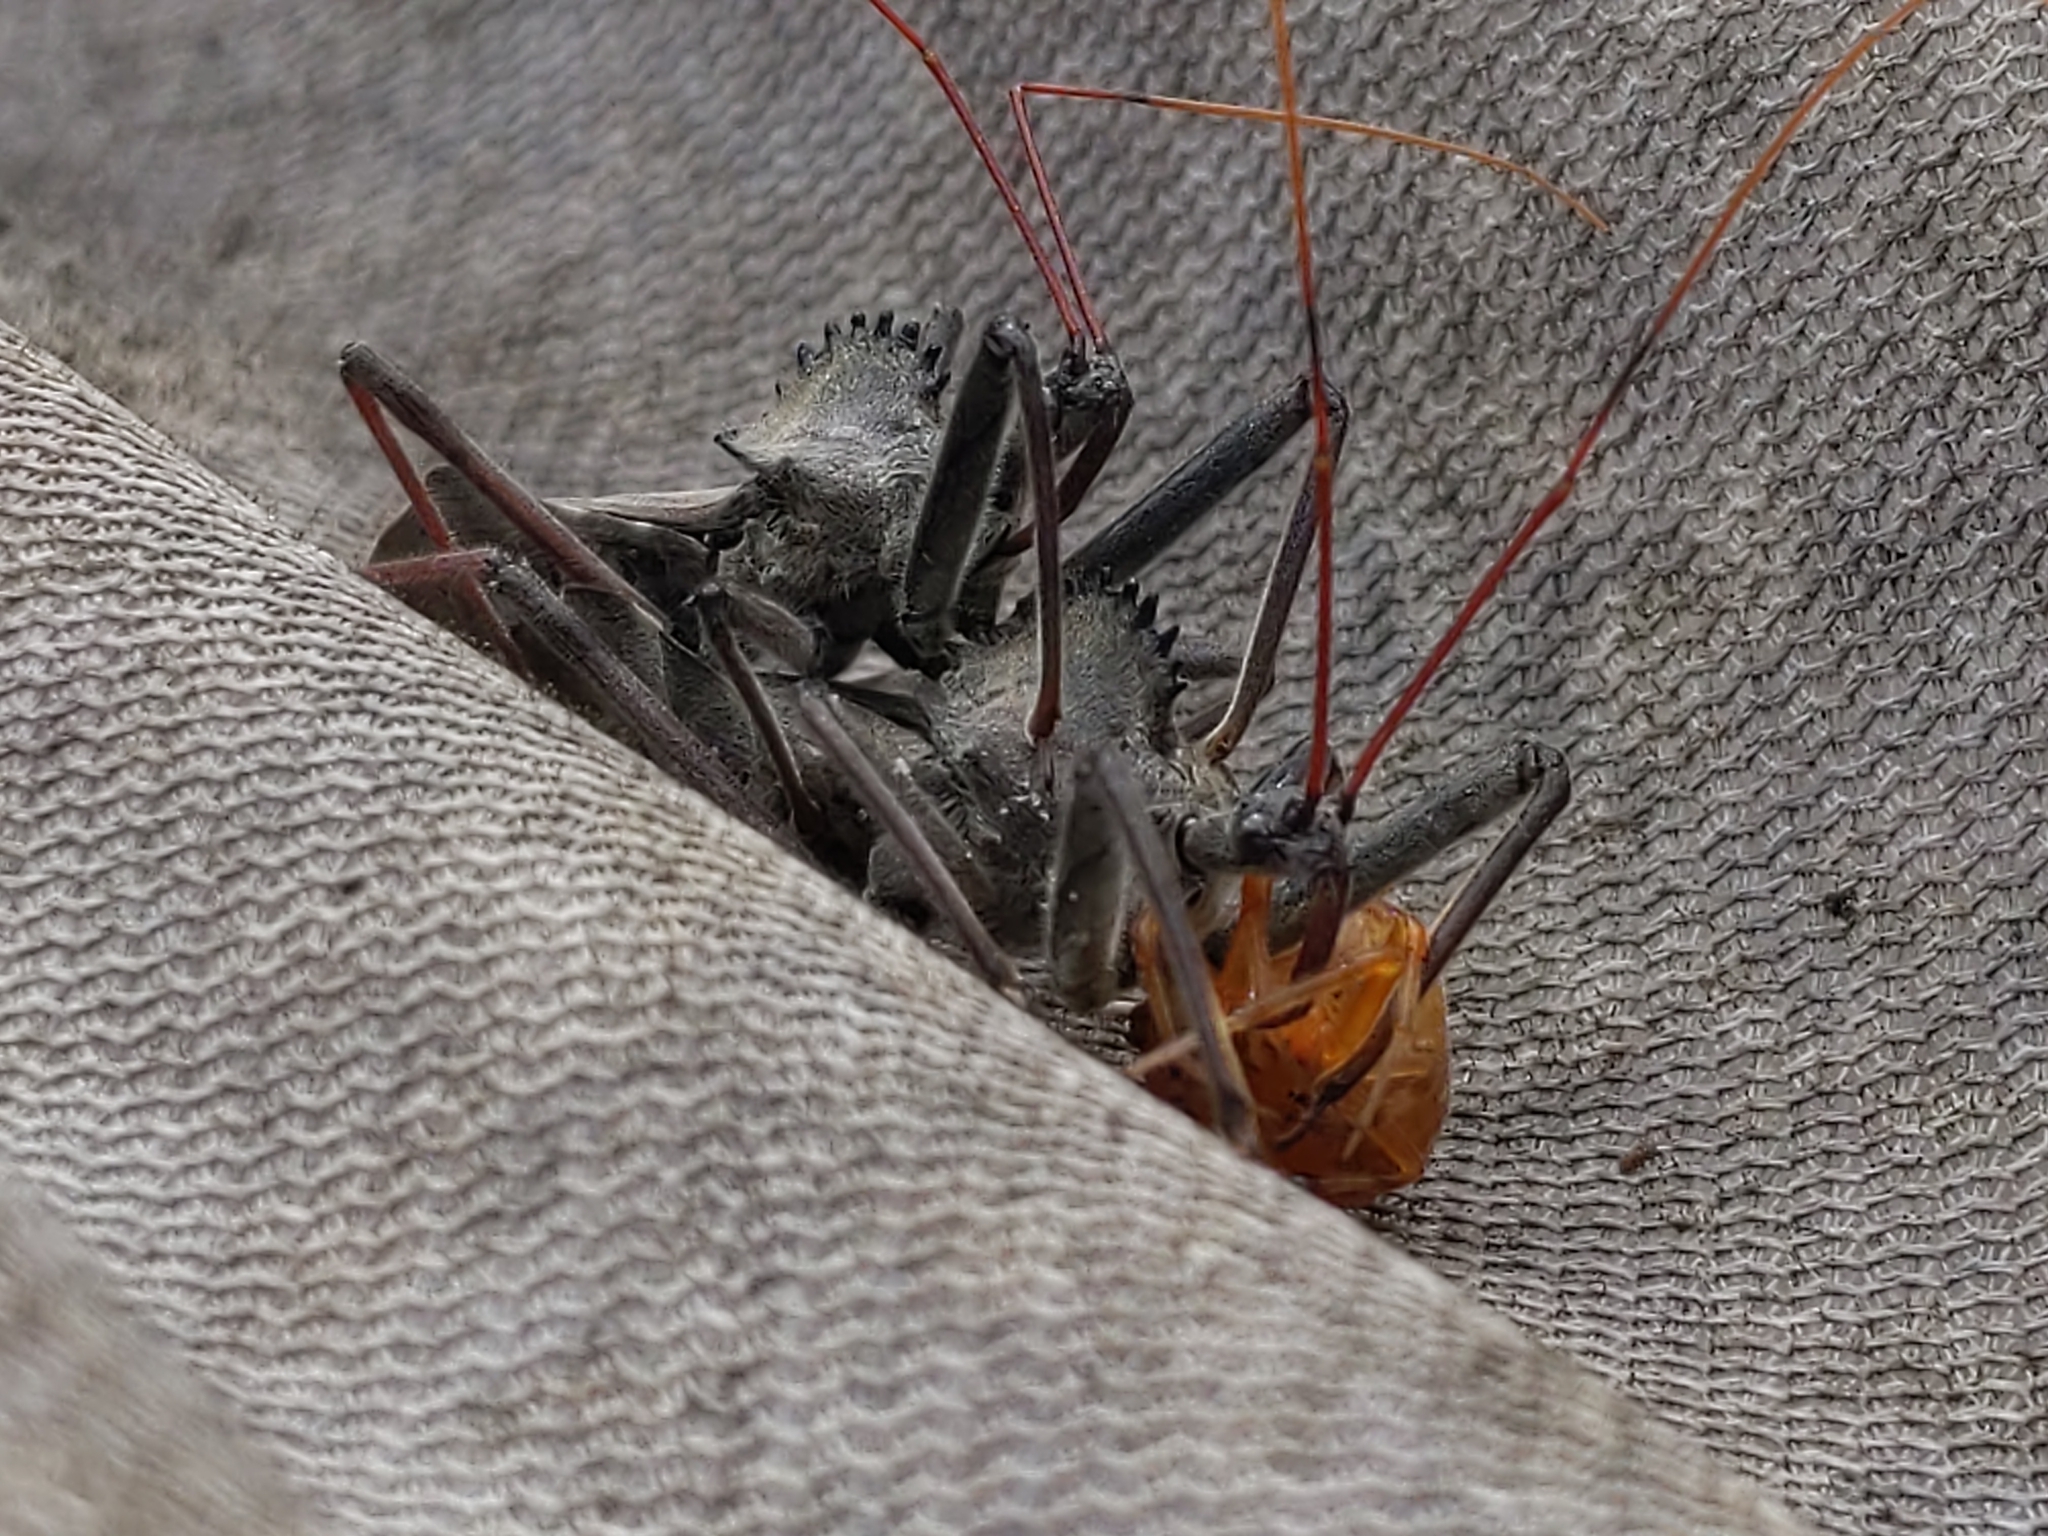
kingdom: Animalia
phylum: Arthropoda
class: Insecta
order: Hemiptera
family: Reduviidae
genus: Arilus
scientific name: Arilus cristatus
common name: North american wheel bug
